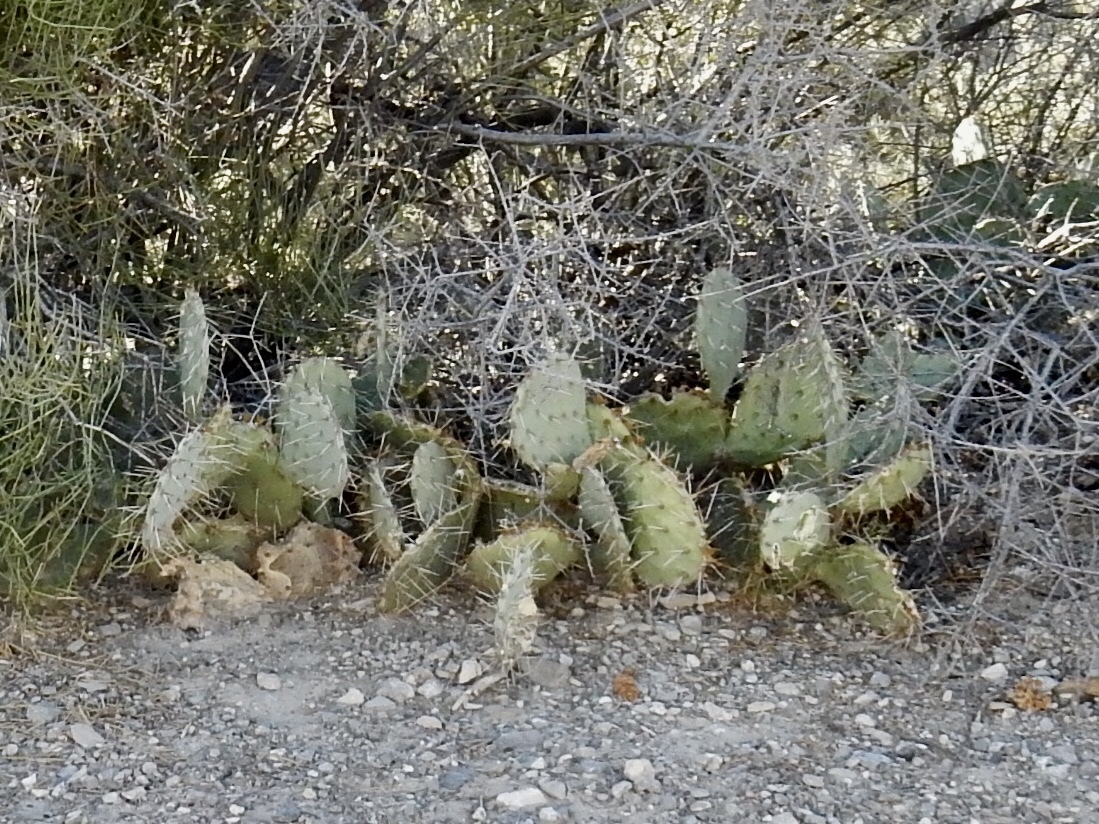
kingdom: Plantae
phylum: Tracheophyta
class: Magnoliopsida
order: Caryophyllales
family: Cactaceae
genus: Opuntia
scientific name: Opuntia phaeacantha
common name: New mexico prickly-pear
